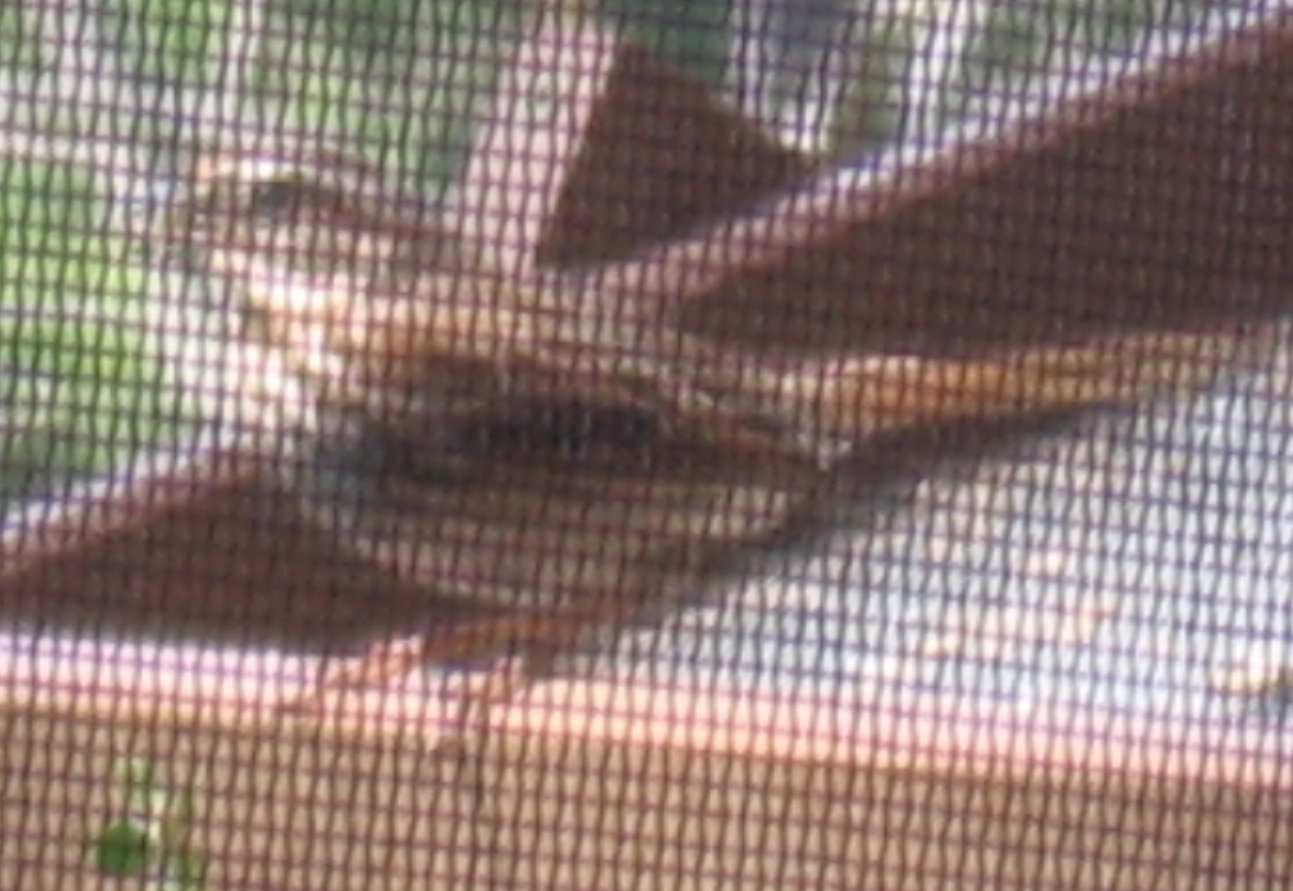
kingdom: Animalia
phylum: Chordata
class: Aves
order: Passeriformes
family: Passerellidae
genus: Melospiza
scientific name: Melospiza melodia
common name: Song sparrow
